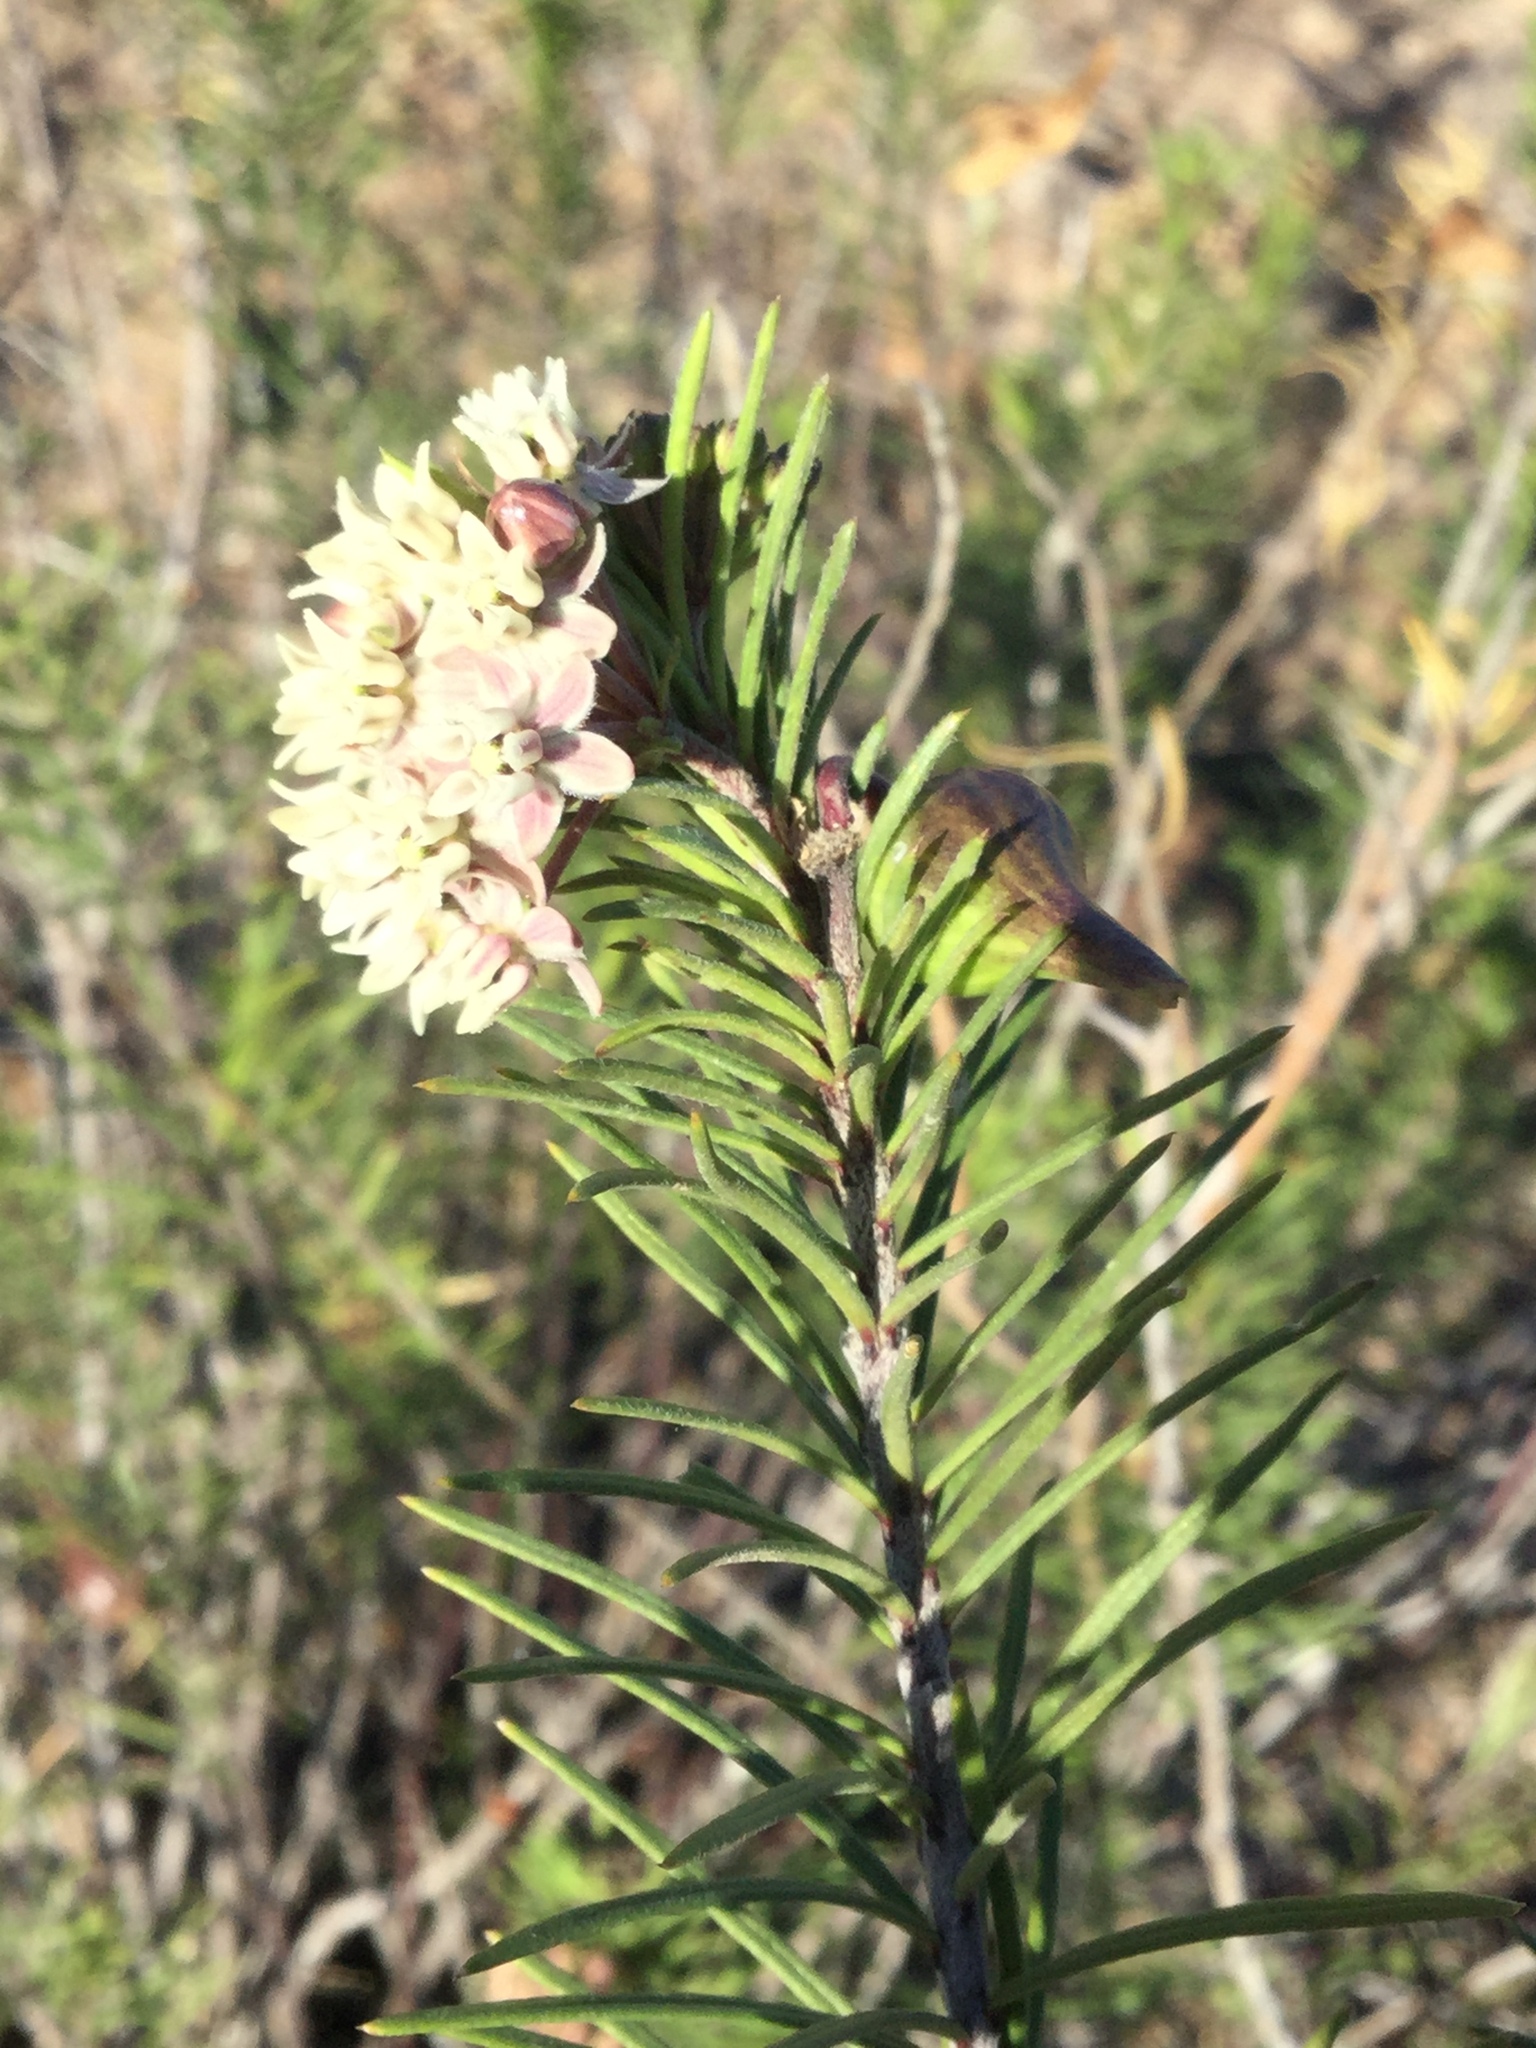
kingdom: Plantae
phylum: Tracheophyta
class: Magnoliopsida
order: Gentianales
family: Apocynaceae
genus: Asclepias
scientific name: Asclepias linaria
